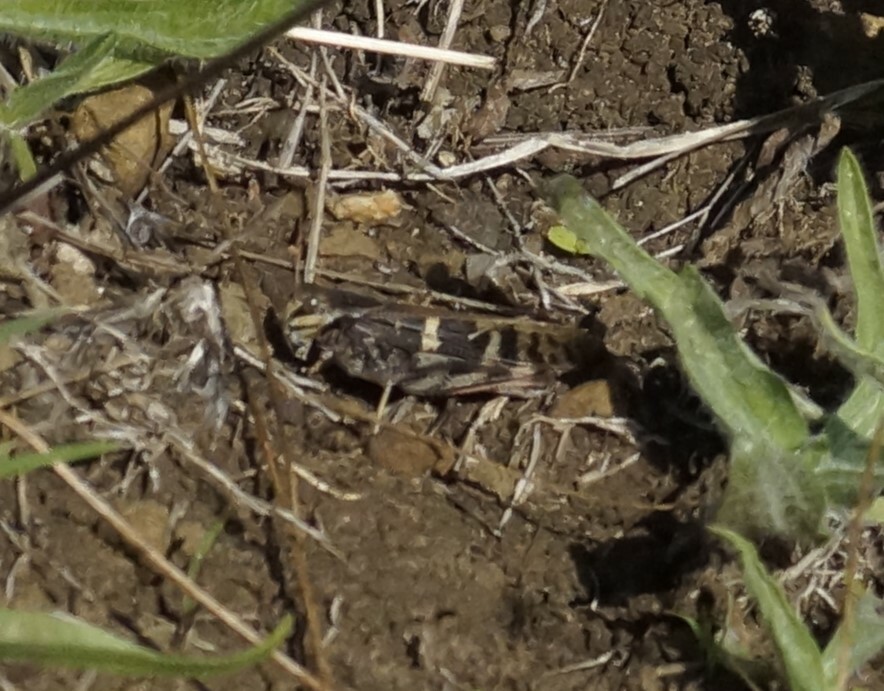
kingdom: Animalia
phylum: Arthropoda
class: Insecta
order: Orthoptera
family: Acrididae
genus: Gastrimargus
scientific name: Gastrimargus musicus
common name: Yellow-winged locust
